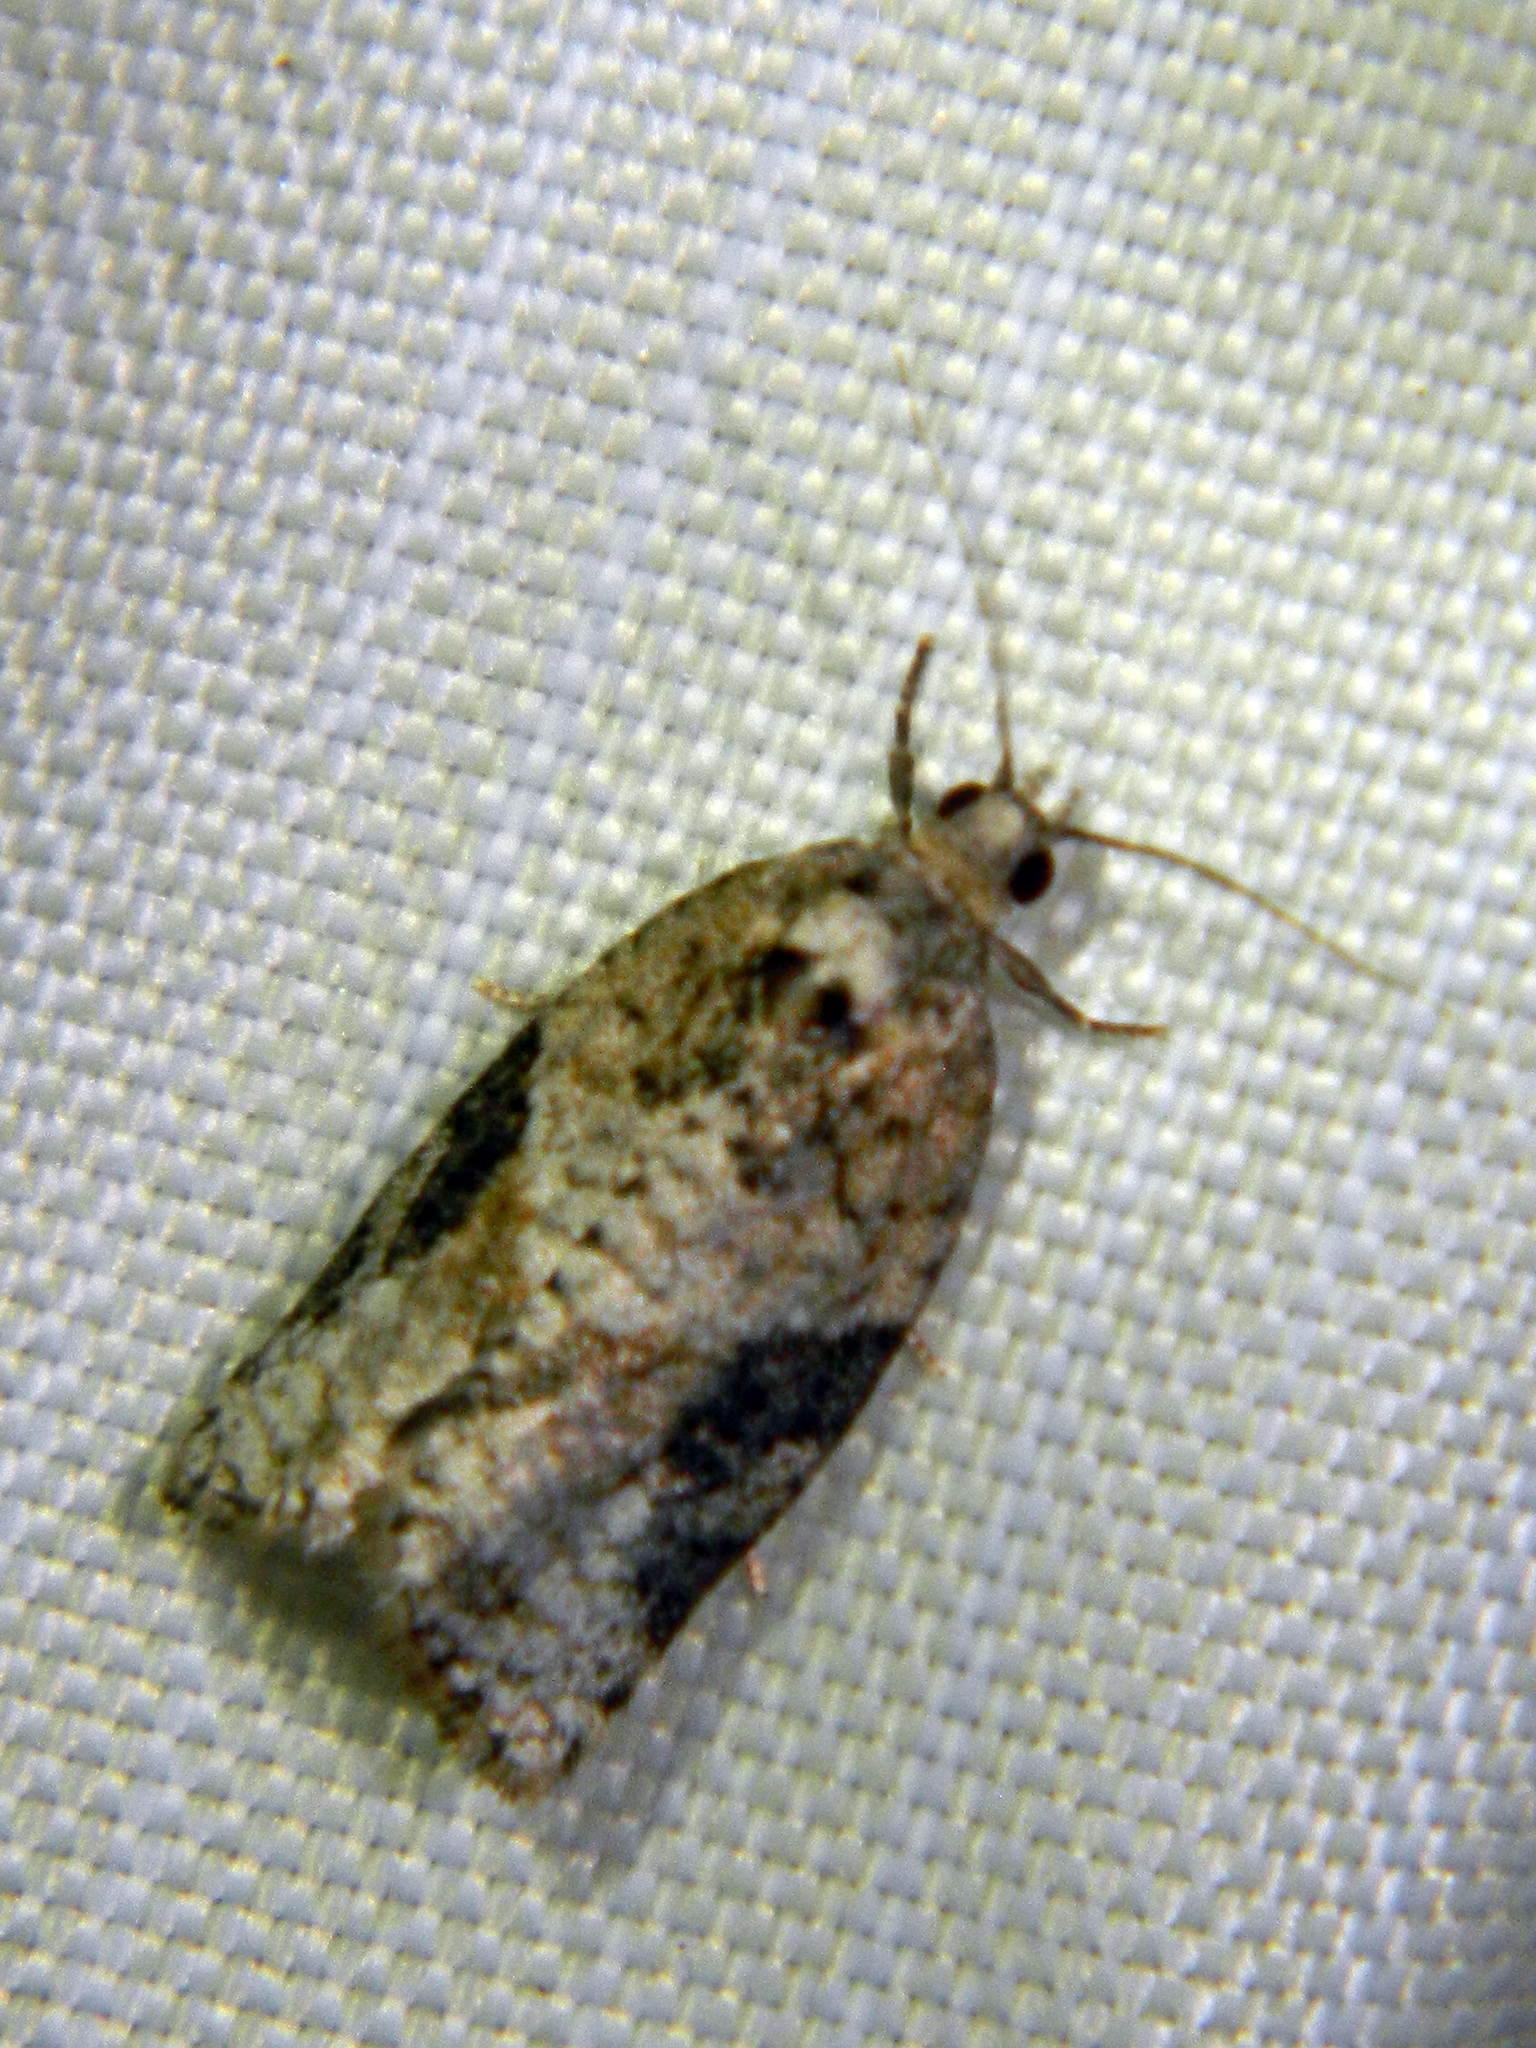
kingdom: Animalia
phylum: Arthropoda
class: Insecta
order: Lepidoptera
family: Tortricidae
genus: Argyrotaenia
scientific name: Argyrotaenia mariana
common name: Gray-banded leafroller moth
